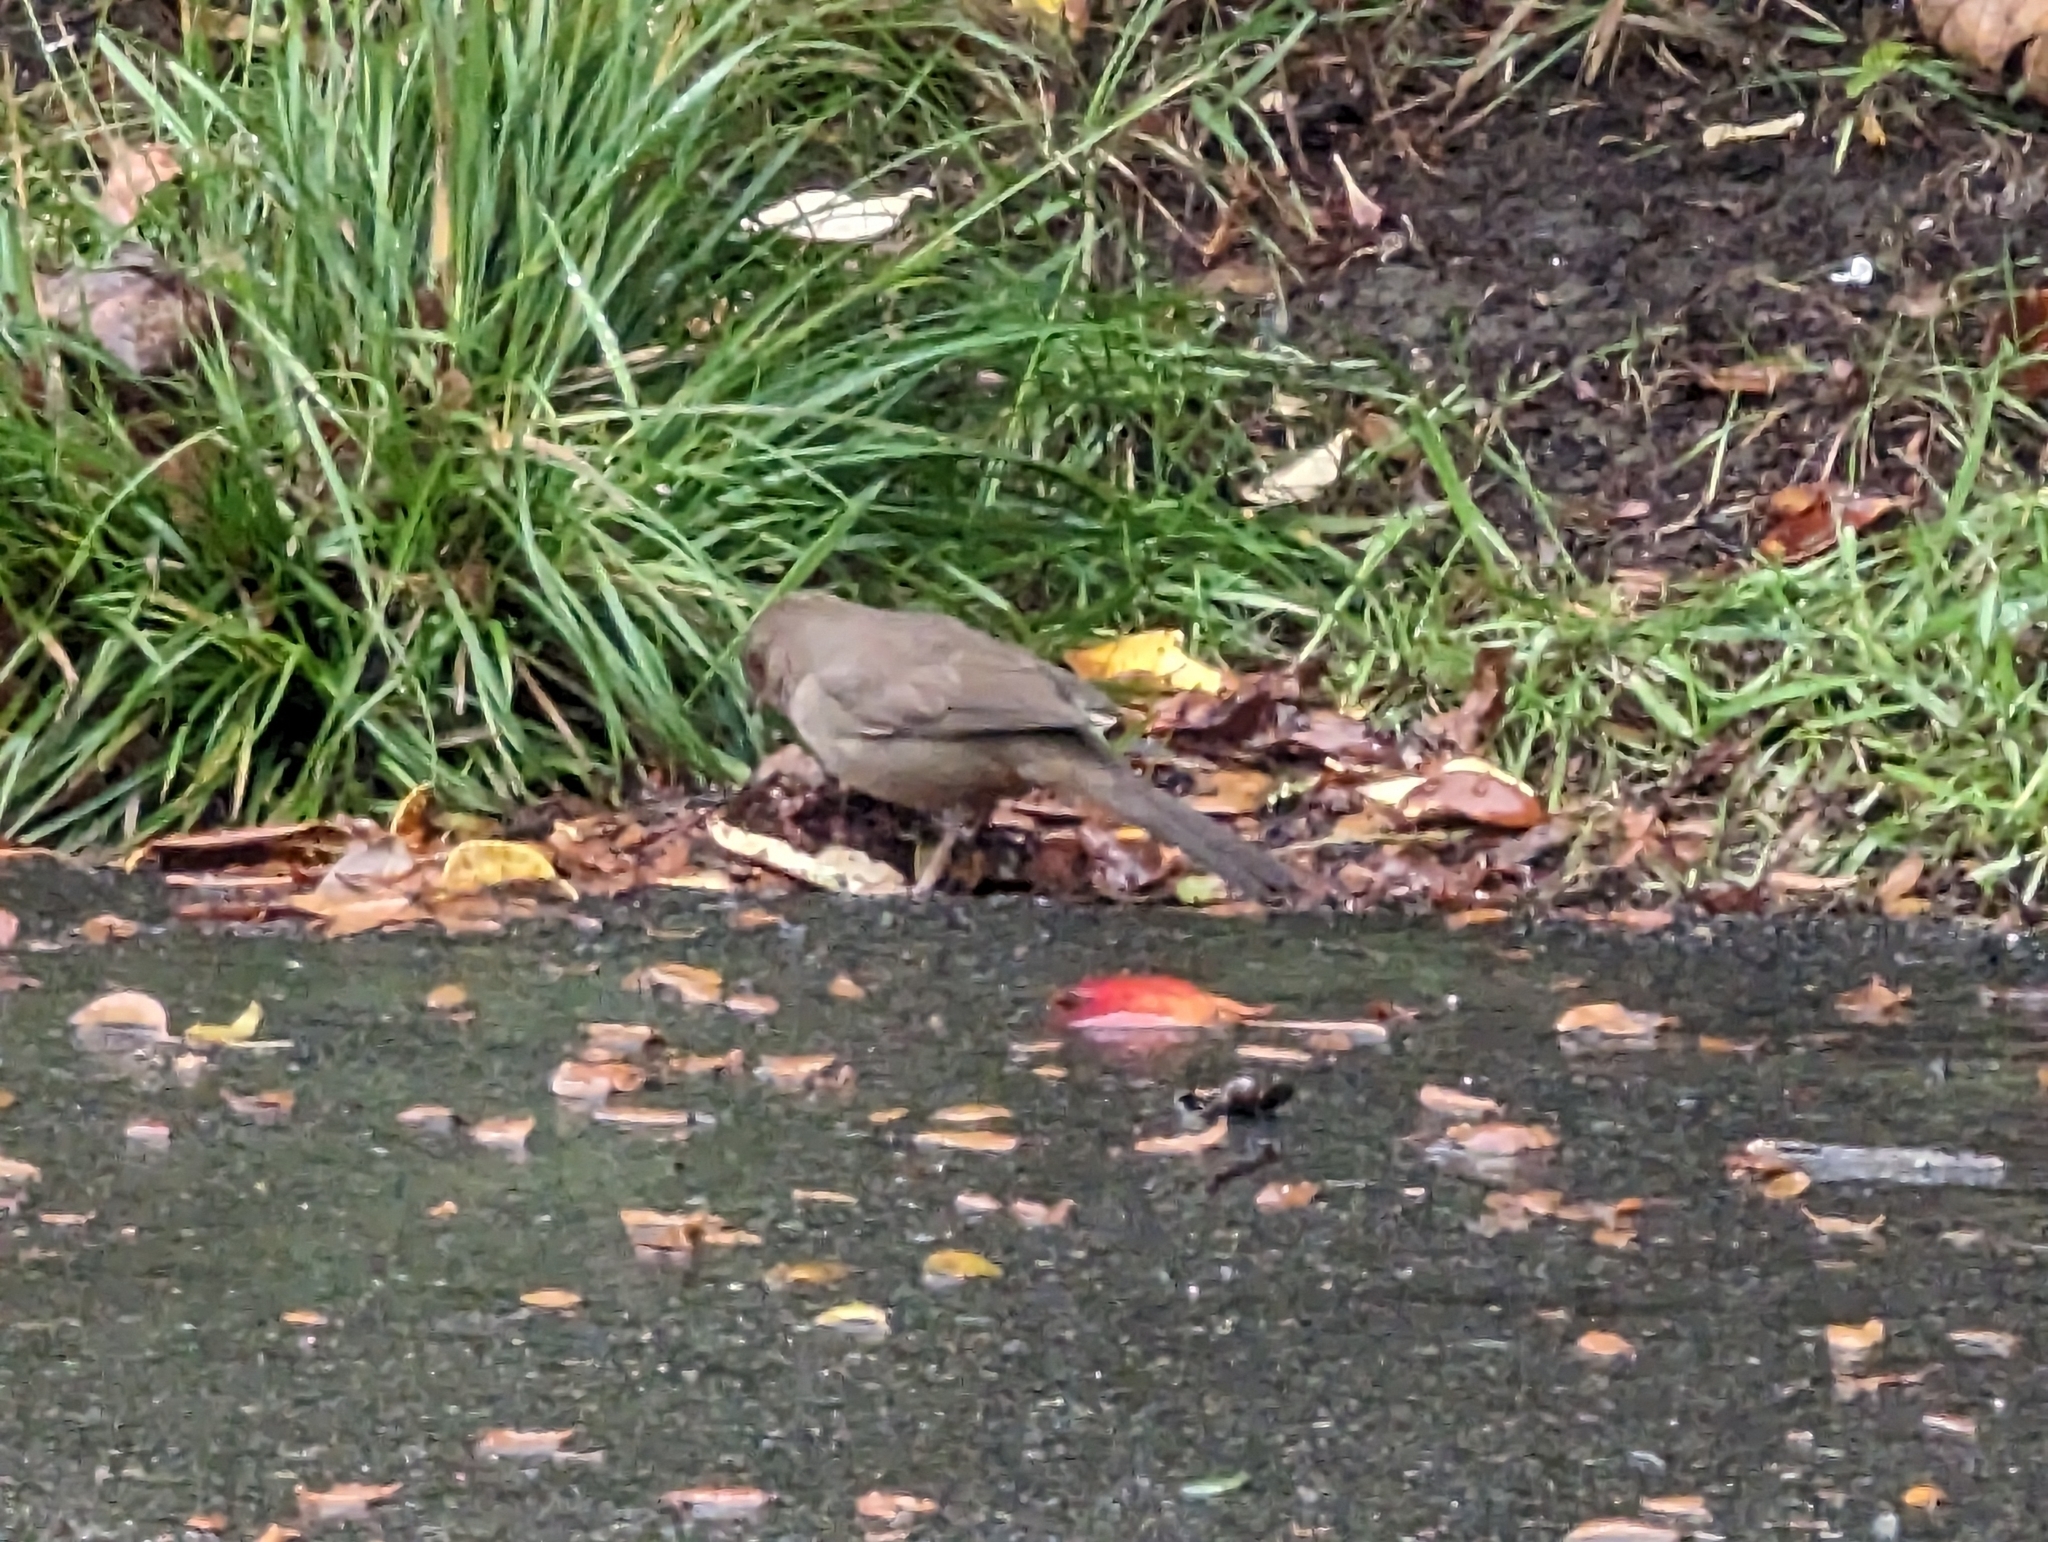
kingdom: Animalia
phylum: Chordata
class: Aves
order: Passeriformes
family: Passerellidae
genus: Melozone
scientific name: Melozone crissalis
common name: California towhee
